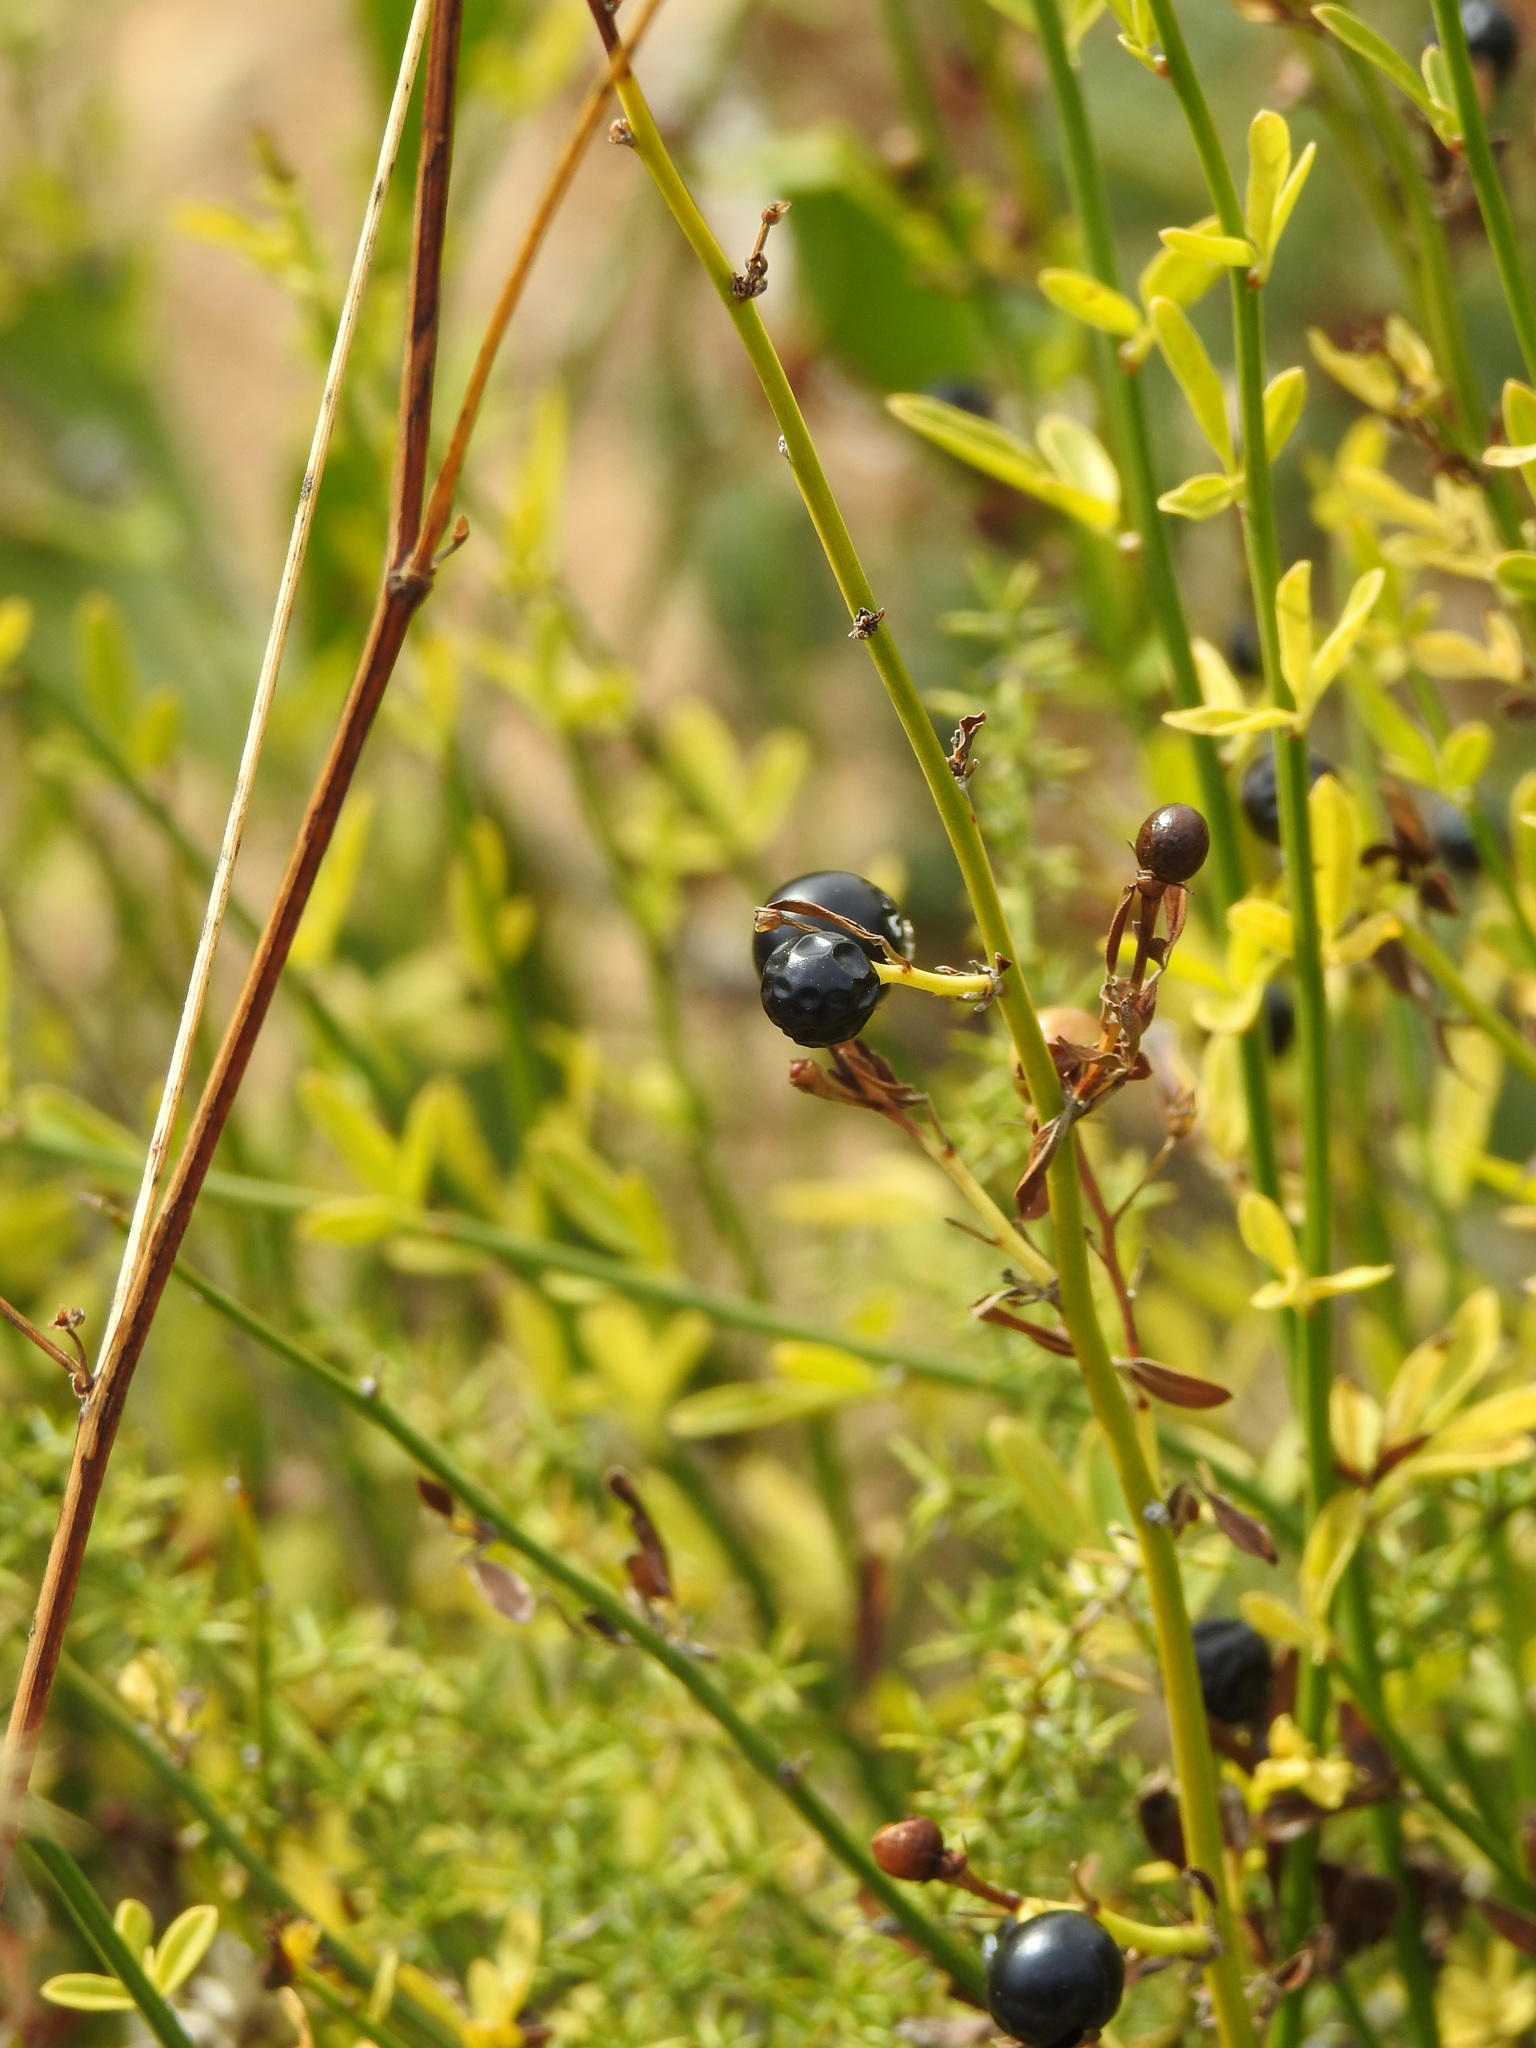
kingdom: Plantae
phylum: Tracheophyta
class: Magnoliopsida
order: Lamiales
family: Oleaceae
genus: Chrysojasminum
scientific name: Chrysojasminum fruticans
